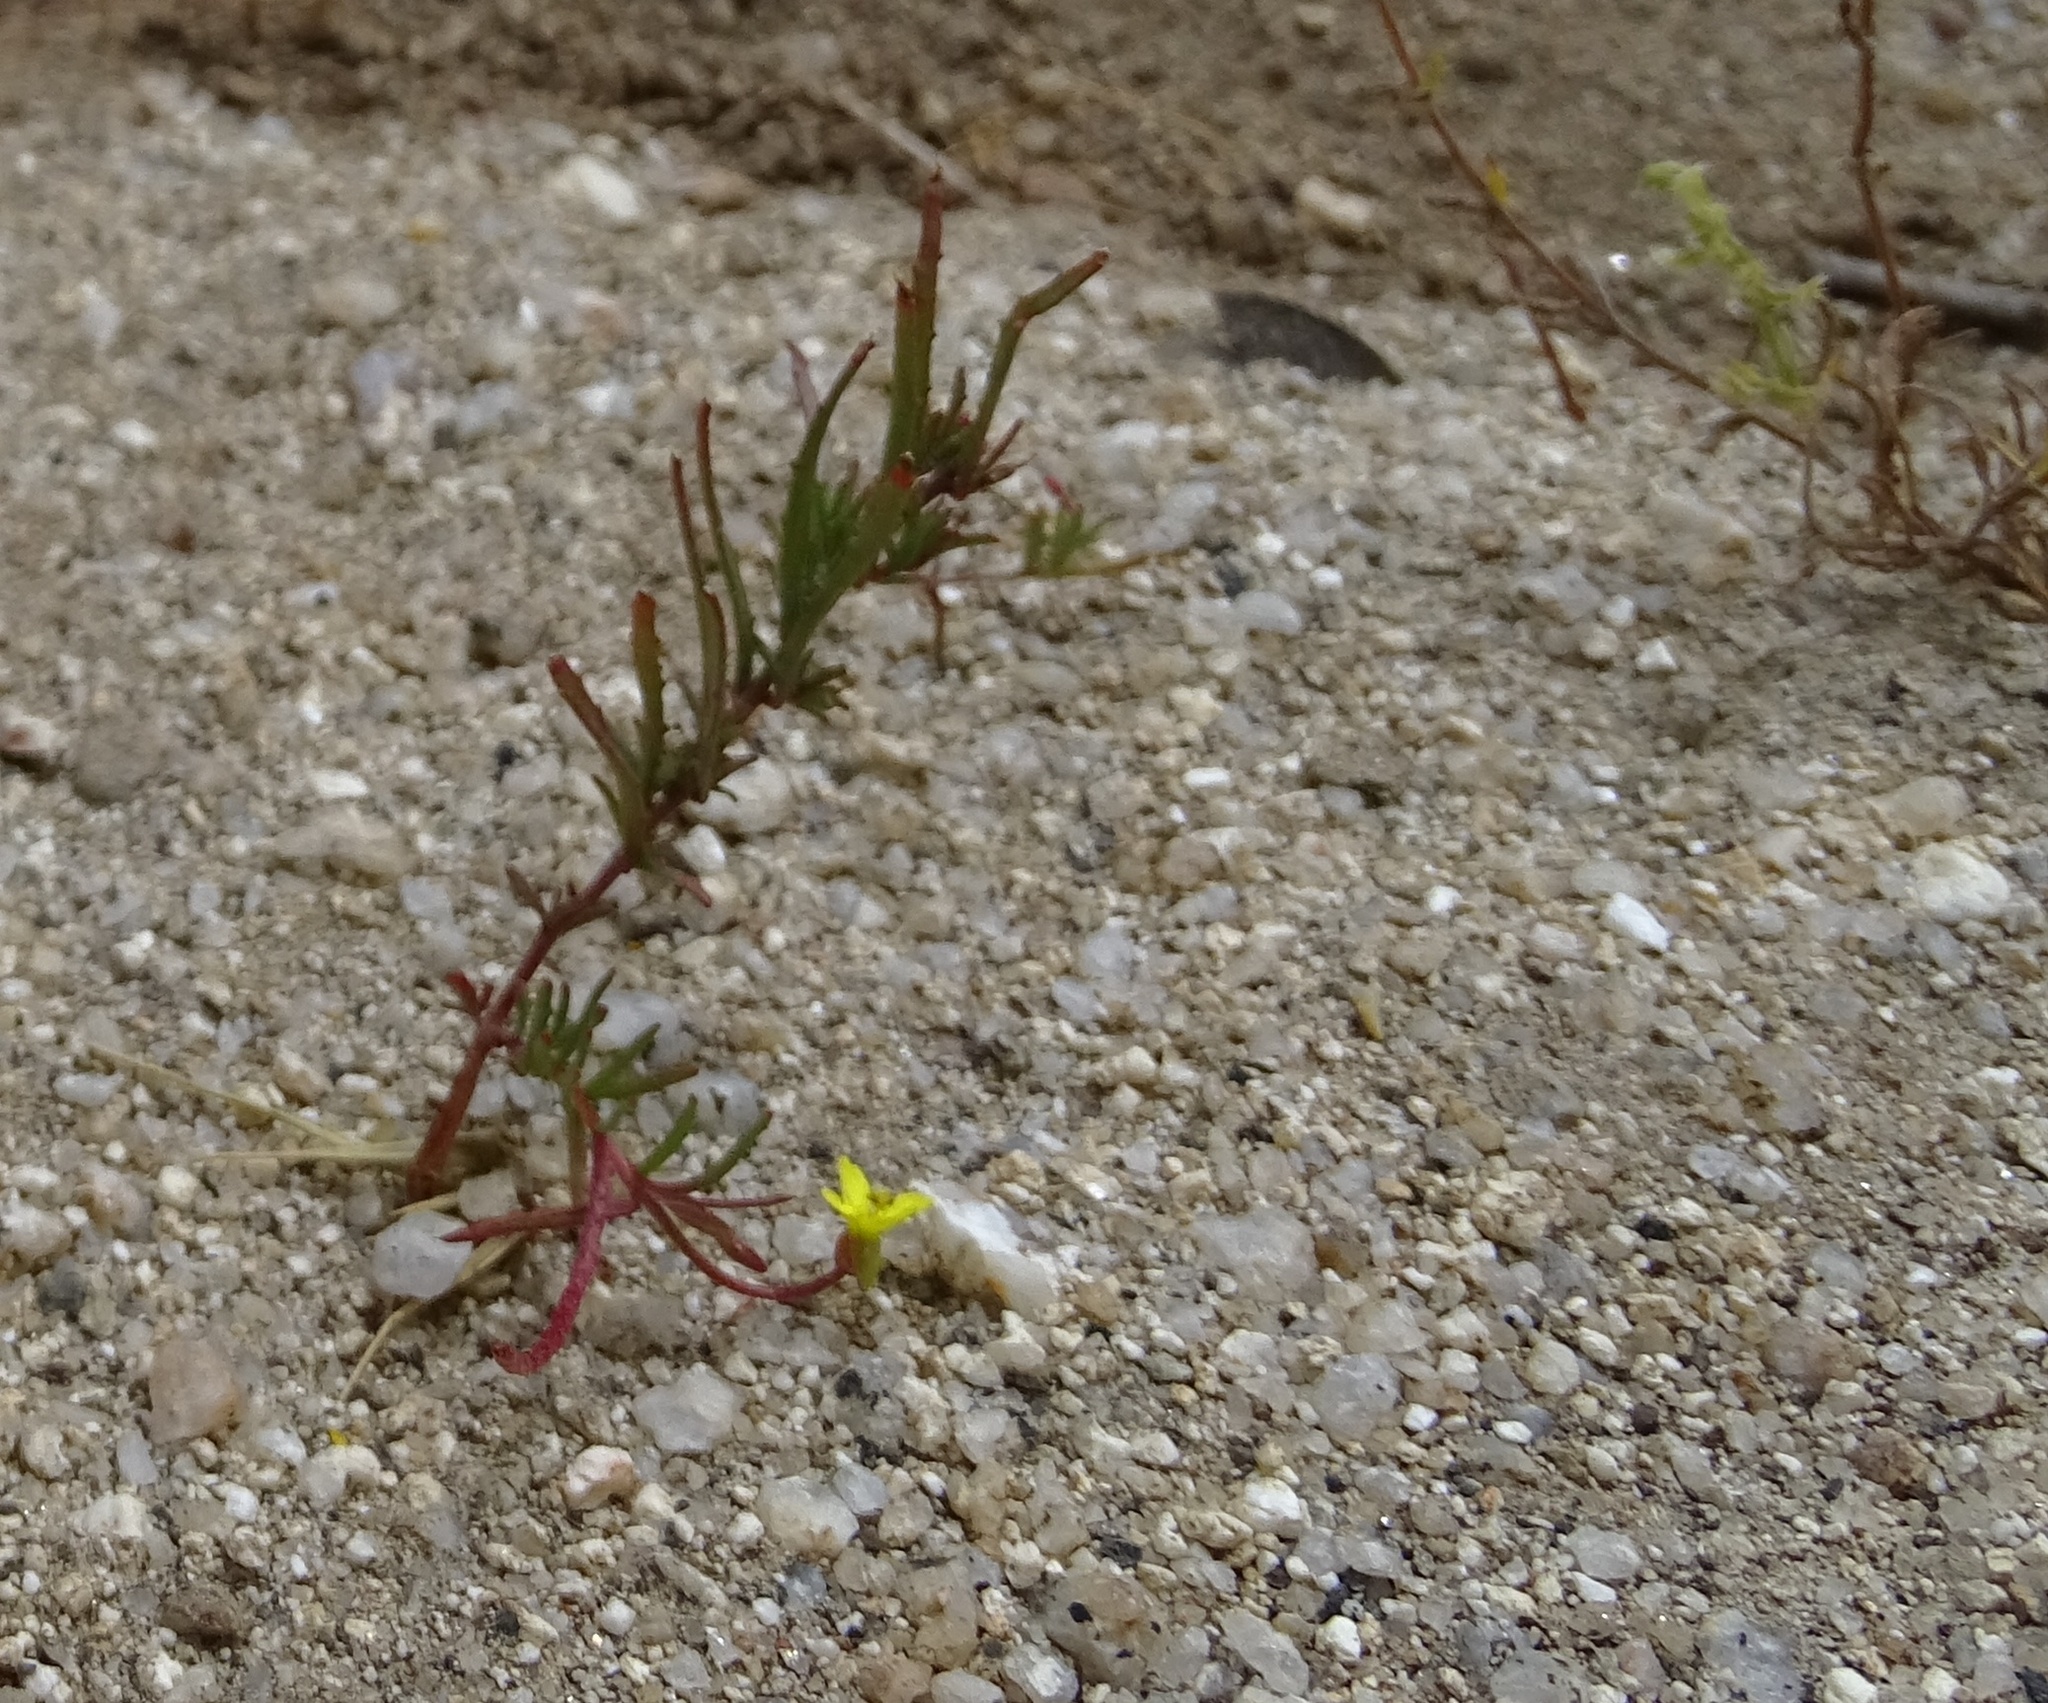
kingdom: Plantae
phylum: Tracheophyta
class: Magnoliopsida
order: Myrtales
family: Onagraceae
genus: Camissonia
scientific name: Camissonia strigulosa
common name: Contorted-primrose
